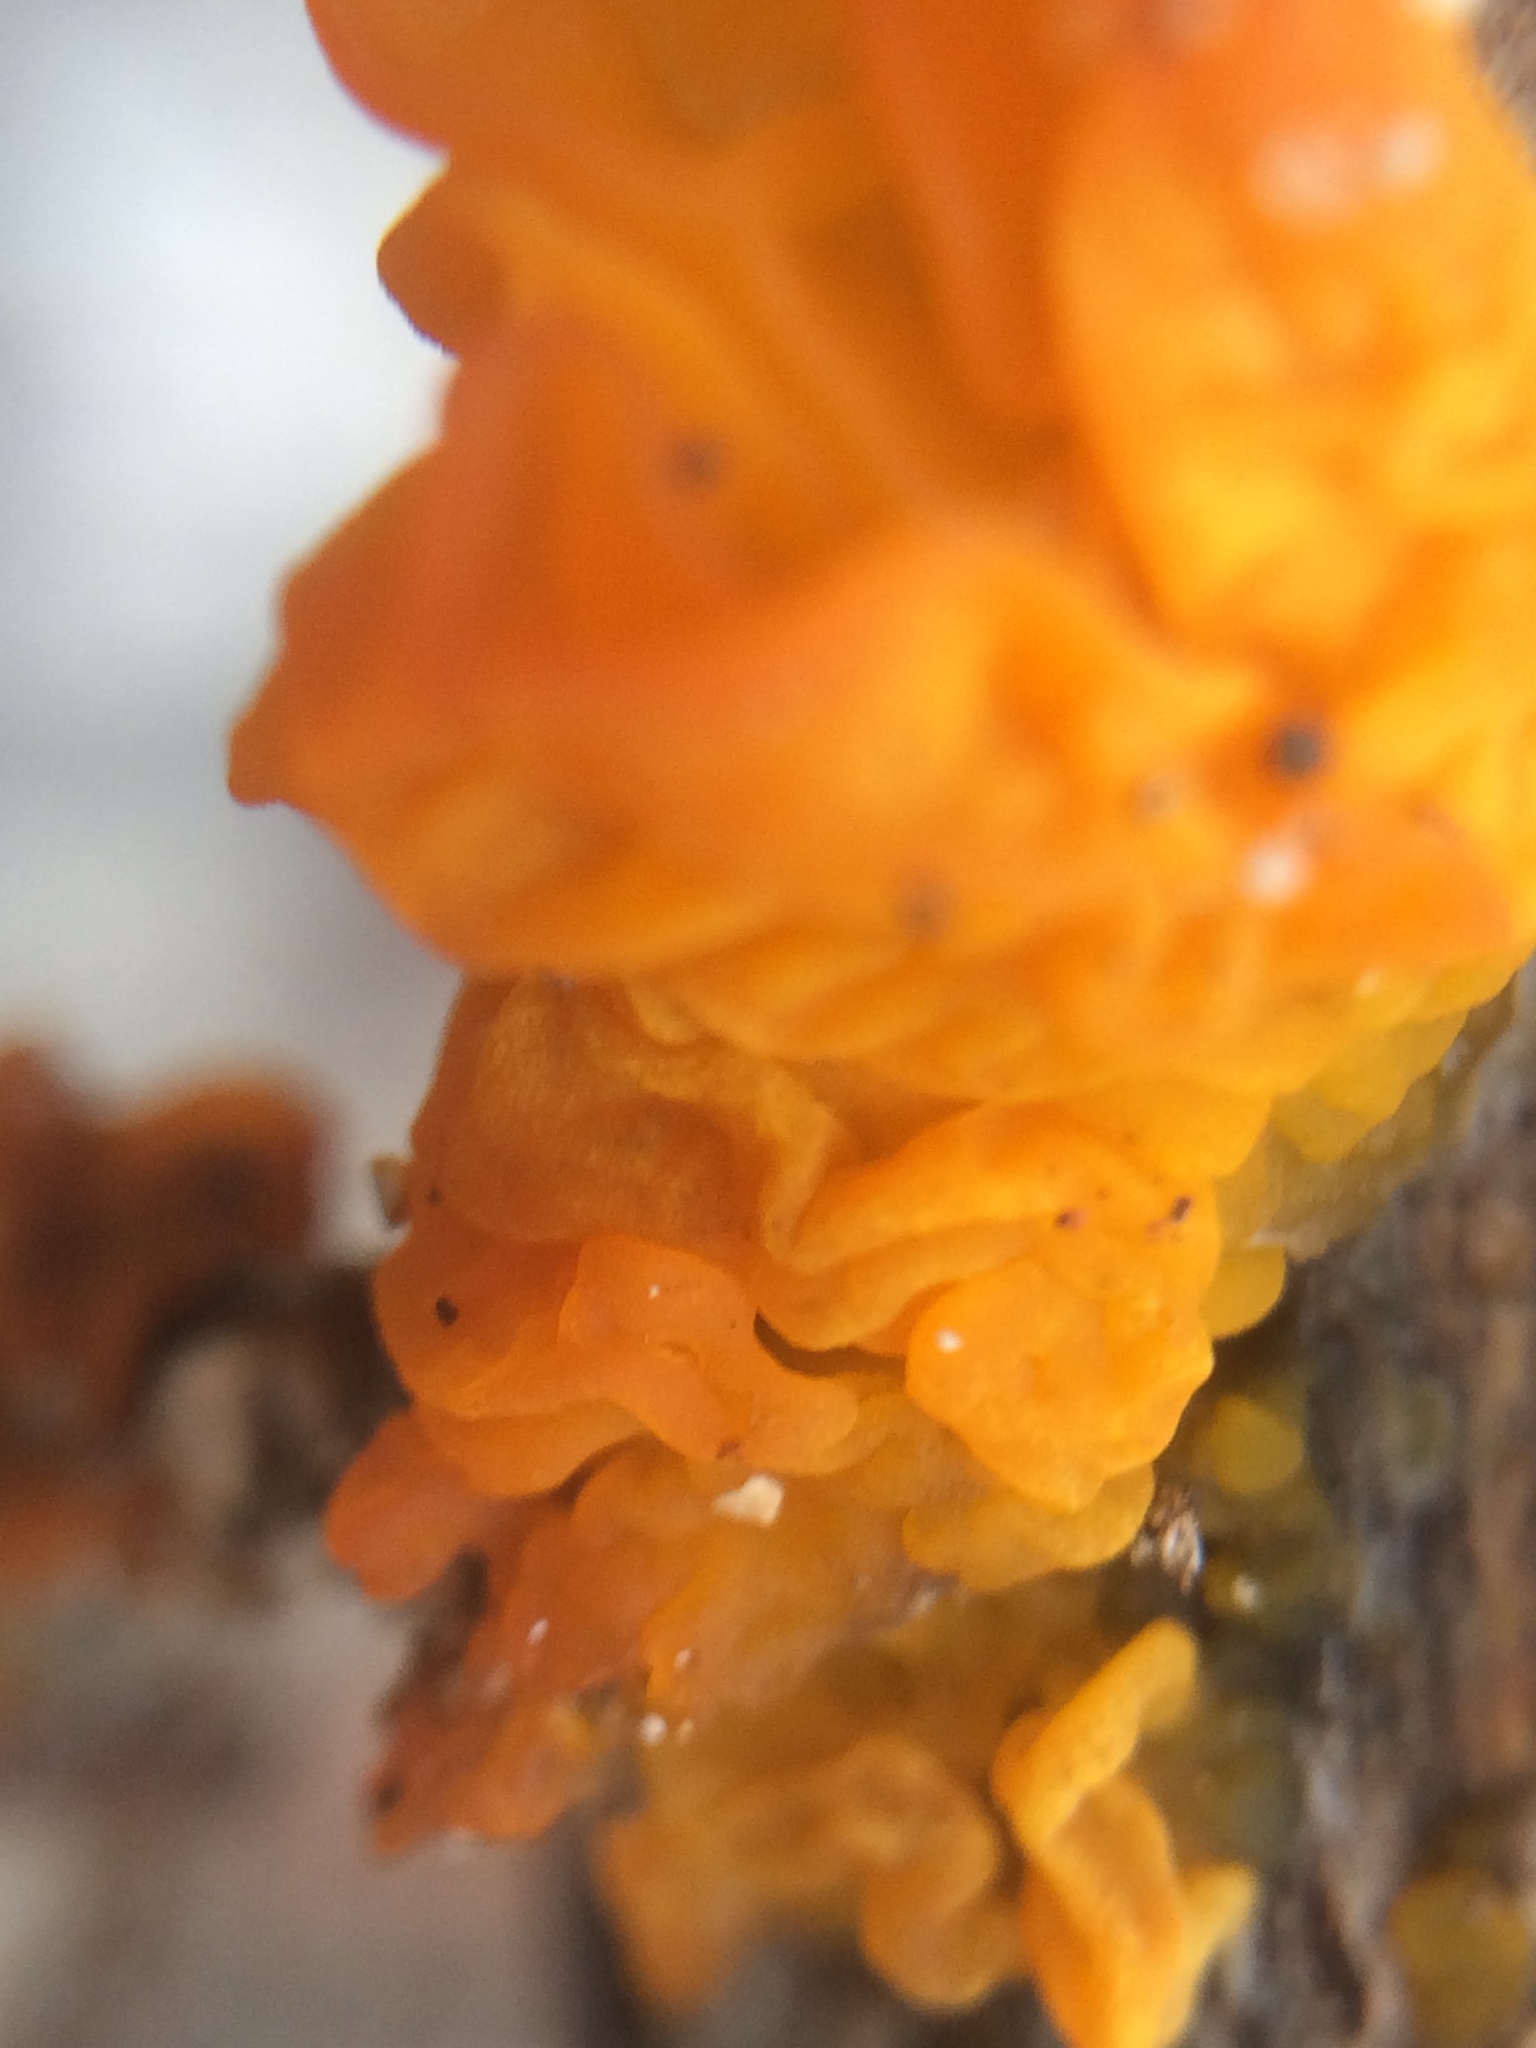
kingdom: Fungi
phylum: Basidiomycota
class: Tremellomycetes
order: Tremellales
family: Tremellaceae
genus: Tremella
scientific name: Tremella mesenterica
